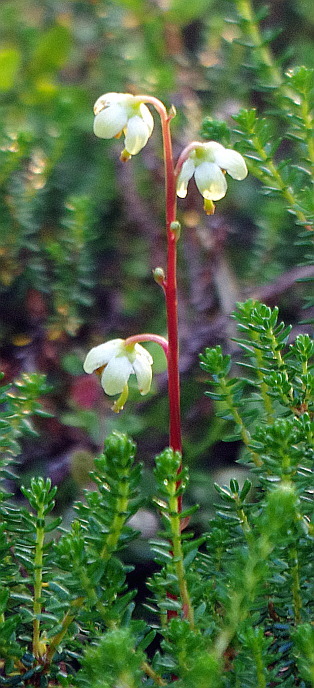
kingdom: Plantae
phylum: Tracheophyta
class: Magnoliopsida
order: Ericales
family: Ericaceae
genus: Pyrola
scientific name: Pyrola chlorantha
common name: Green wintergreen
